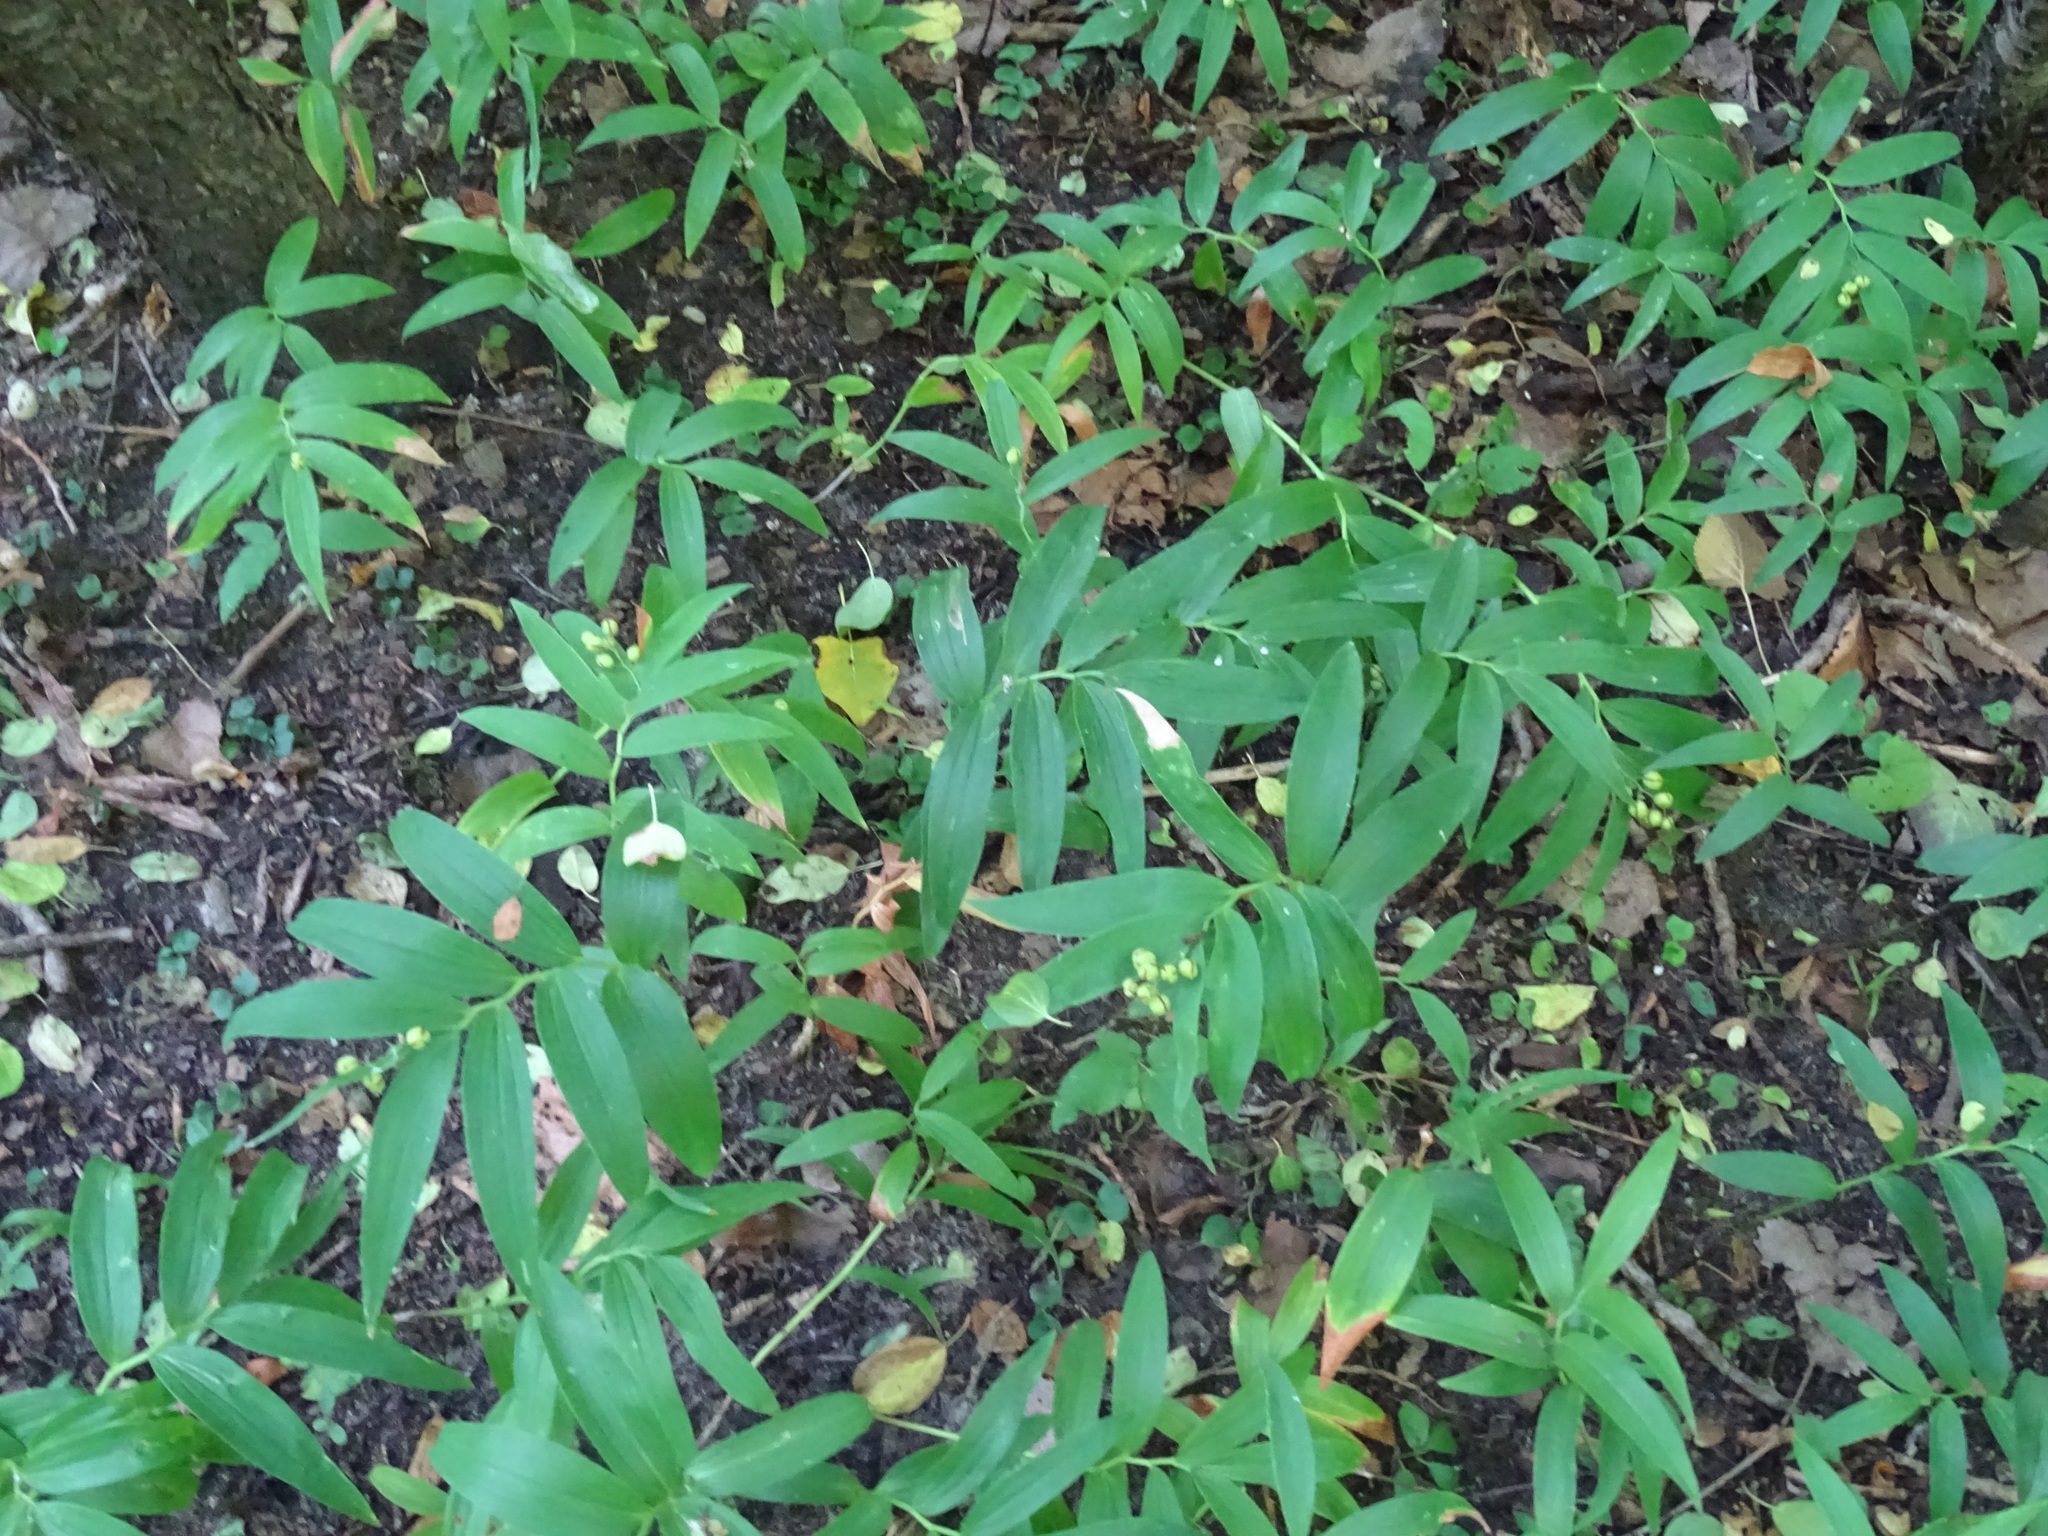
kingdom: Plantae
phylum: Tracheophyta
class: Liliopsida
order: Asparagales
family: Asparagaceae
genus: Maianthemum
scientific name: Maianthemum stellatum
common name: Little false solomon's seal
